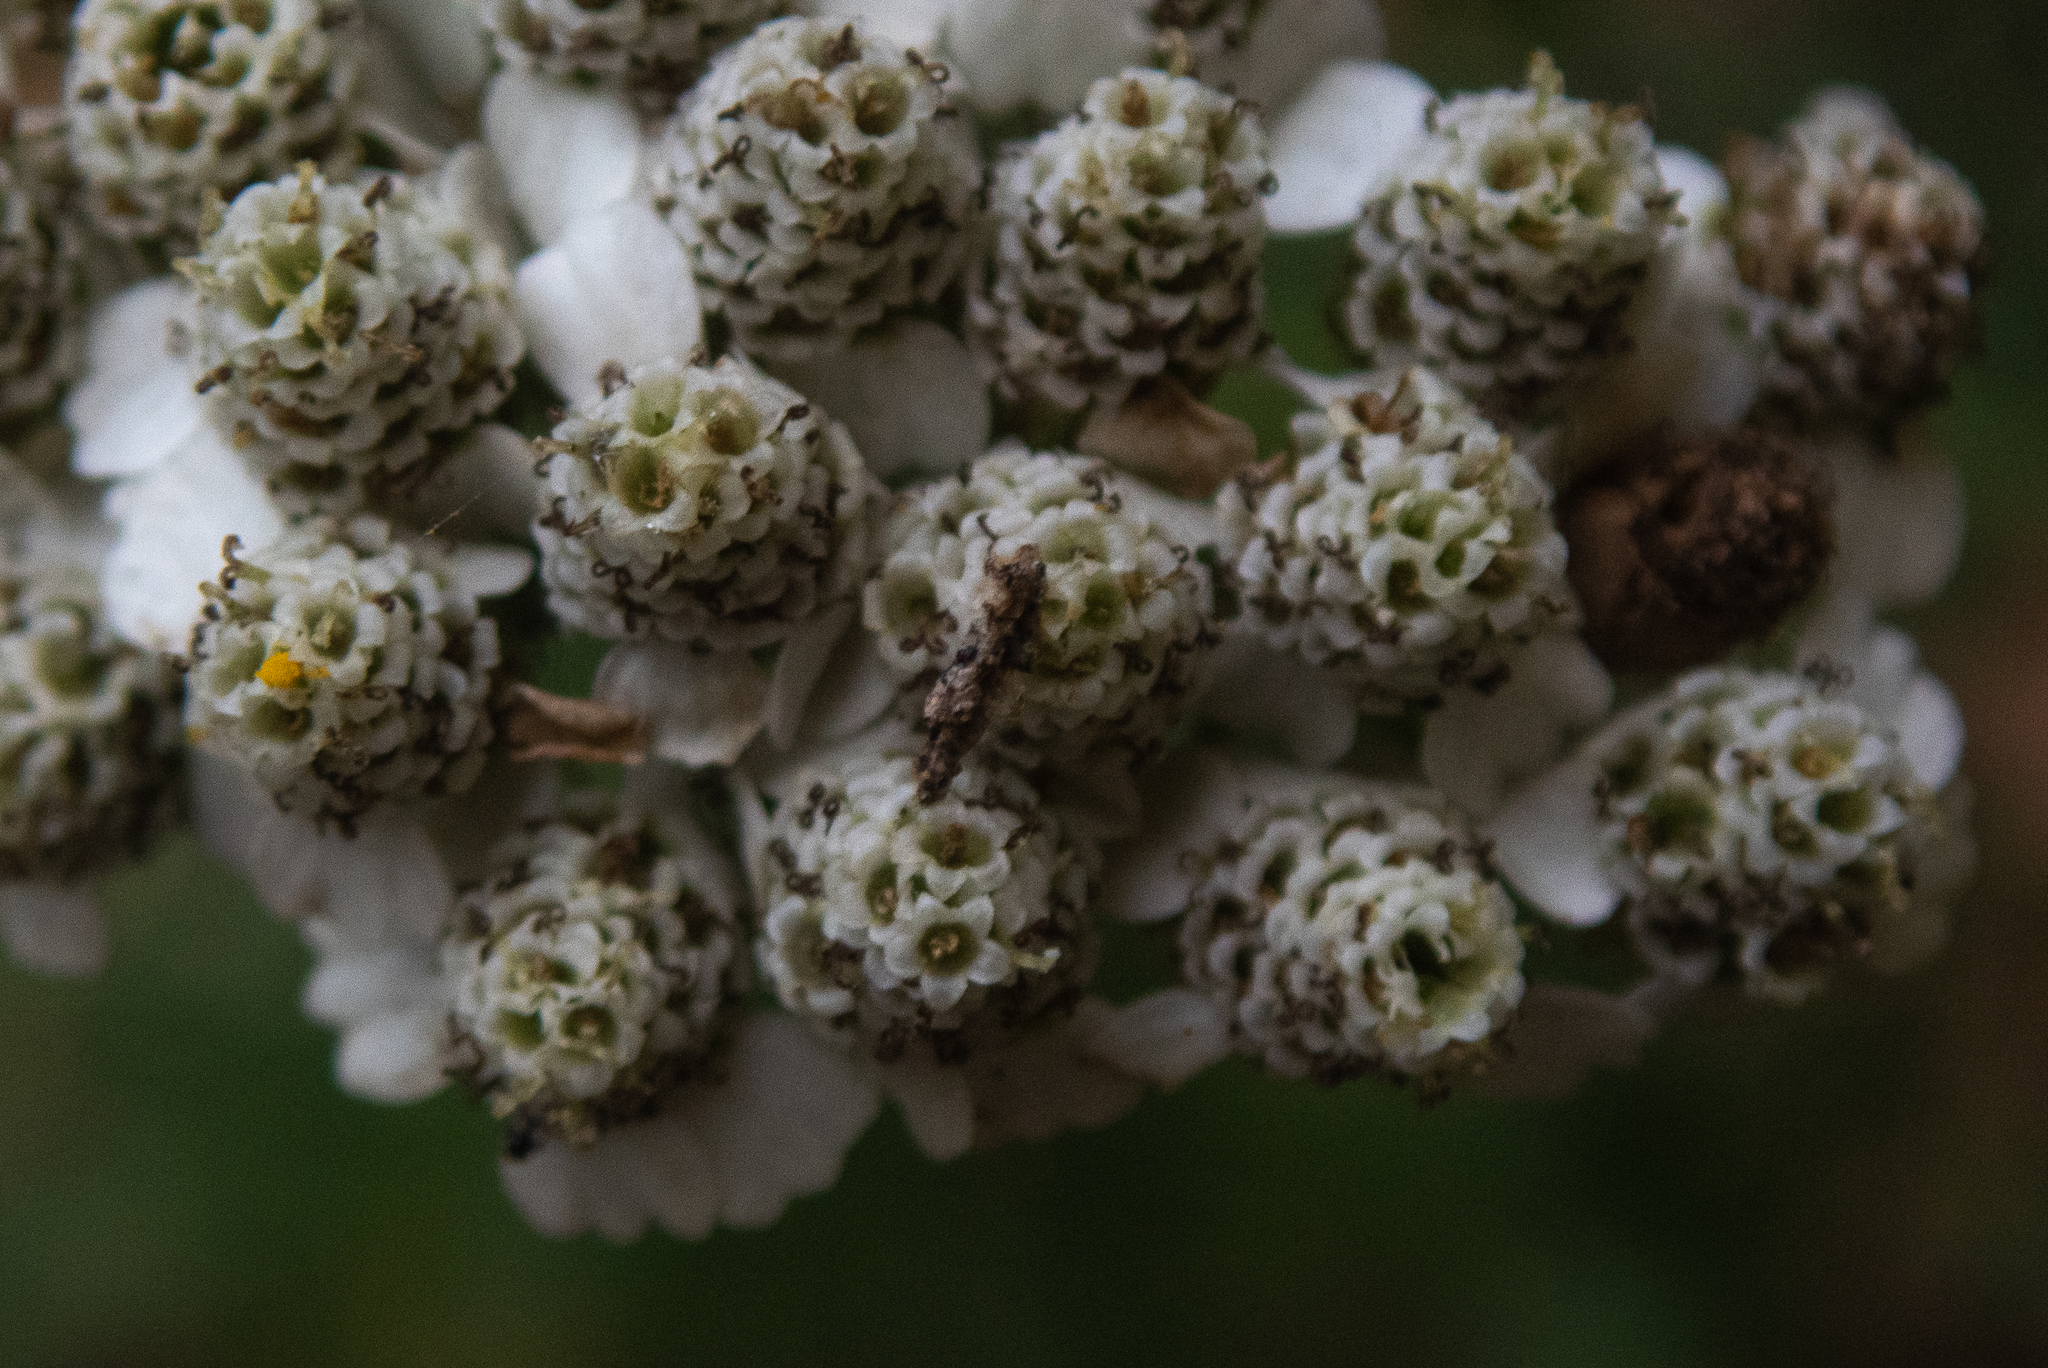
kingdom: Plantae
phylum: Tracheophyta
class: Magnoliopsida
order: Asterales
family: Asteraceae
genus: Achillea
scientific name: Achillea millefolium
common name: Yarrow
